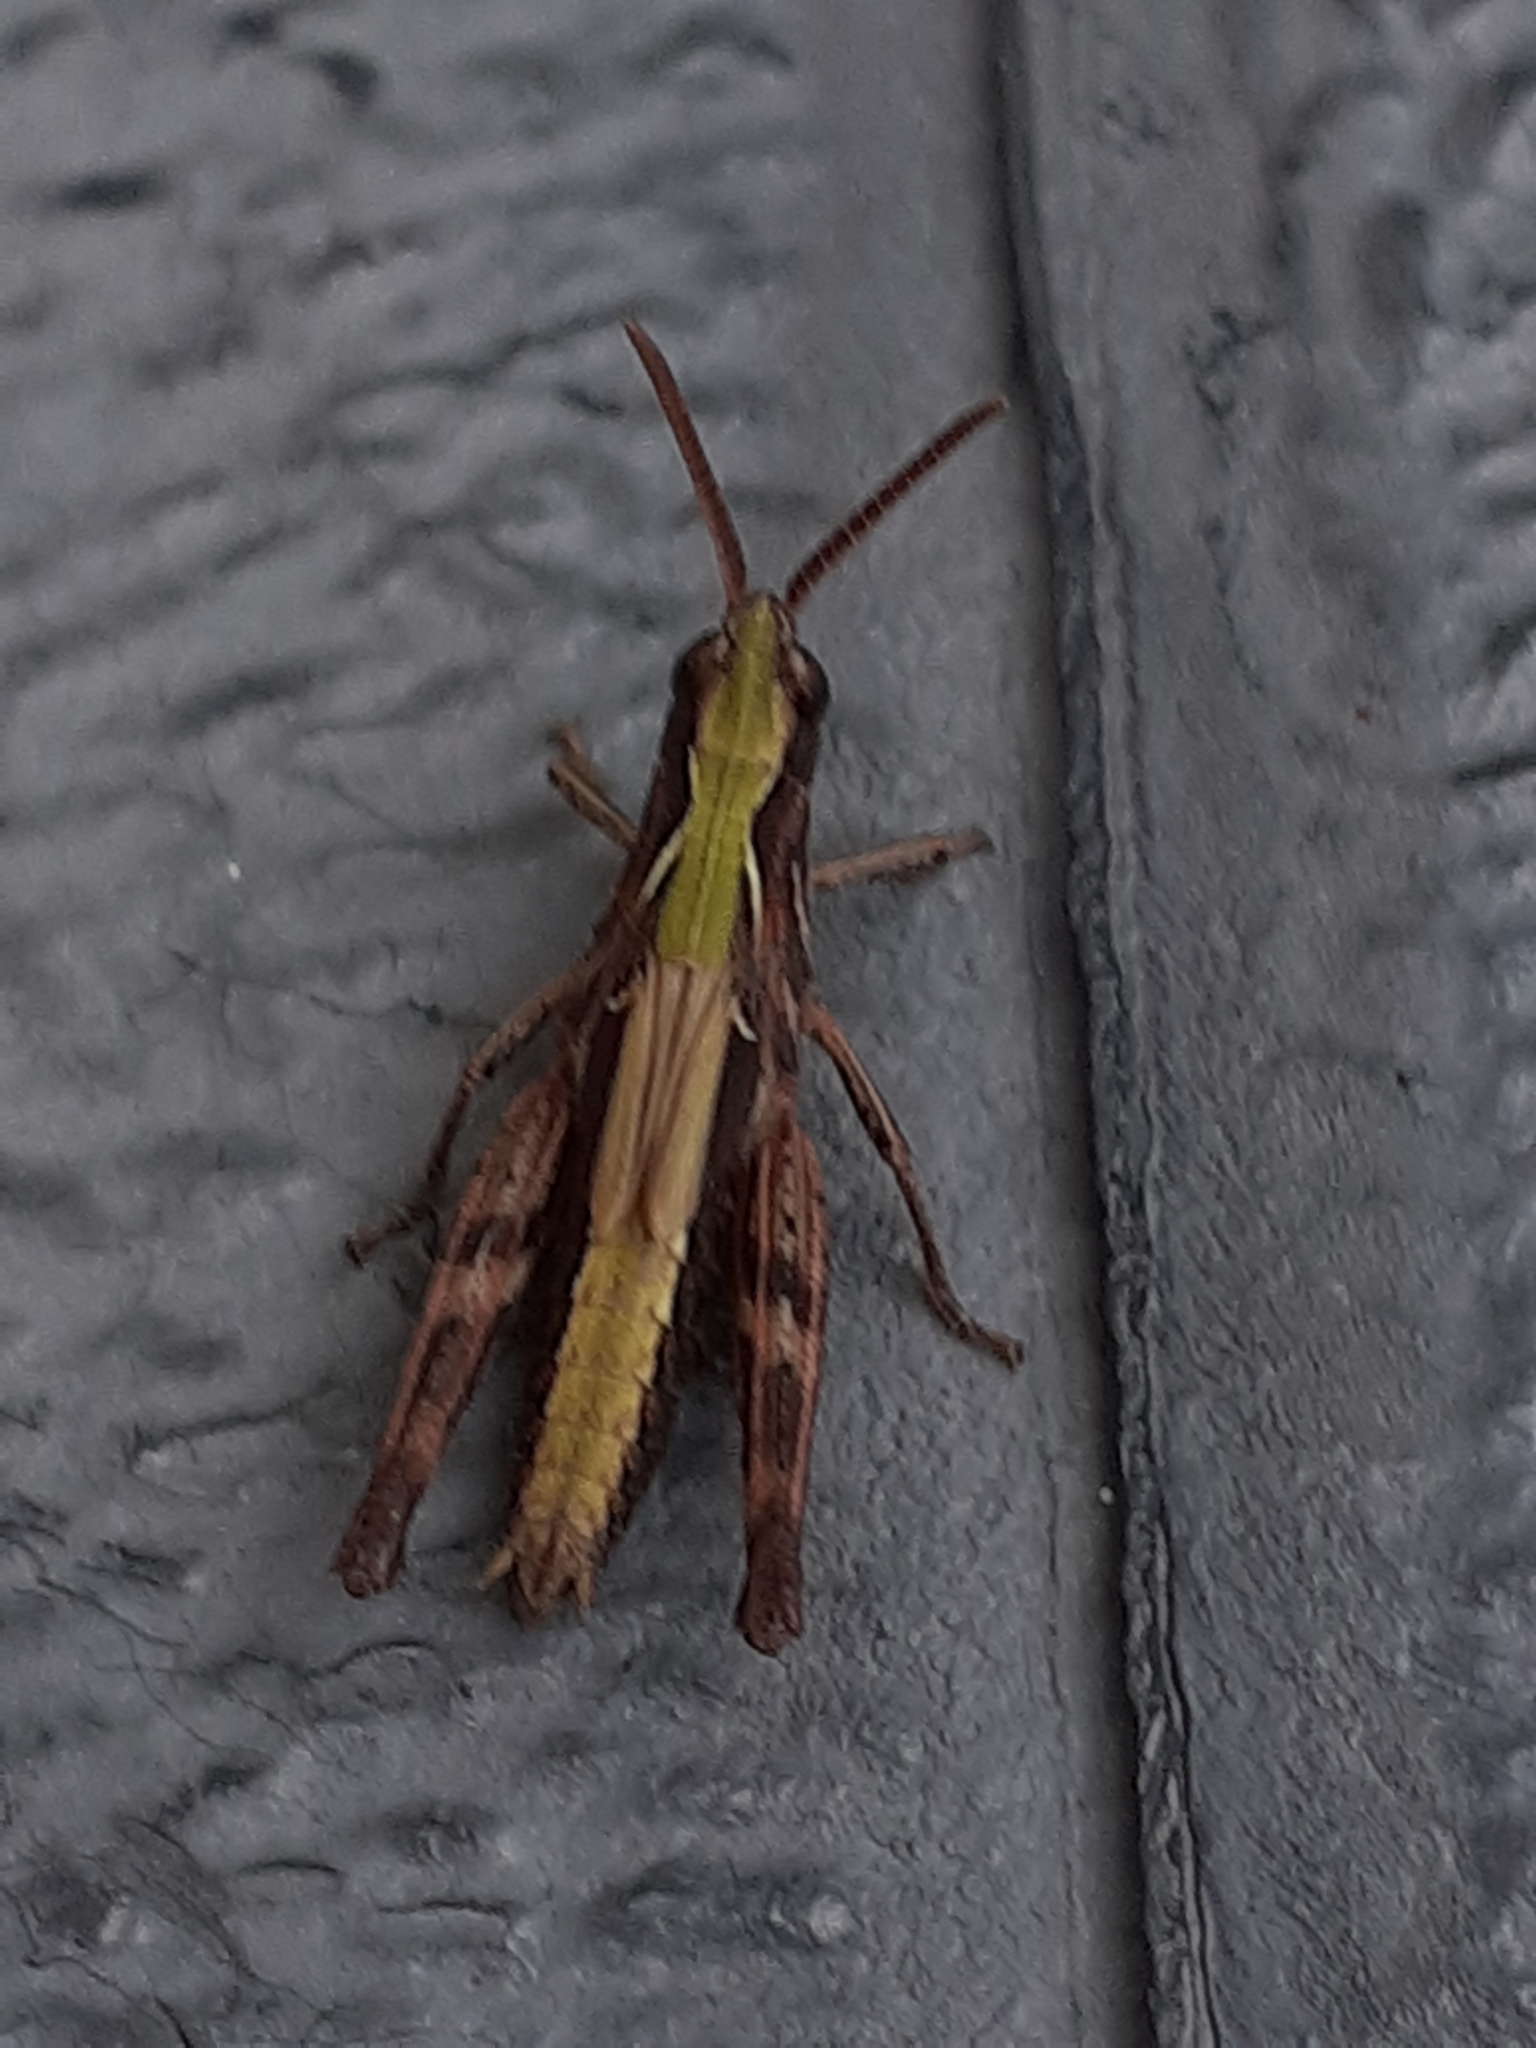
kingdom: Animalia
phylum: Arthropoda
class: Insecta
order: Orthoptera
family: Acrididae
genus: Chorthippus
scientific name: Chorthippus brunneus
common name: Field grasshopper
